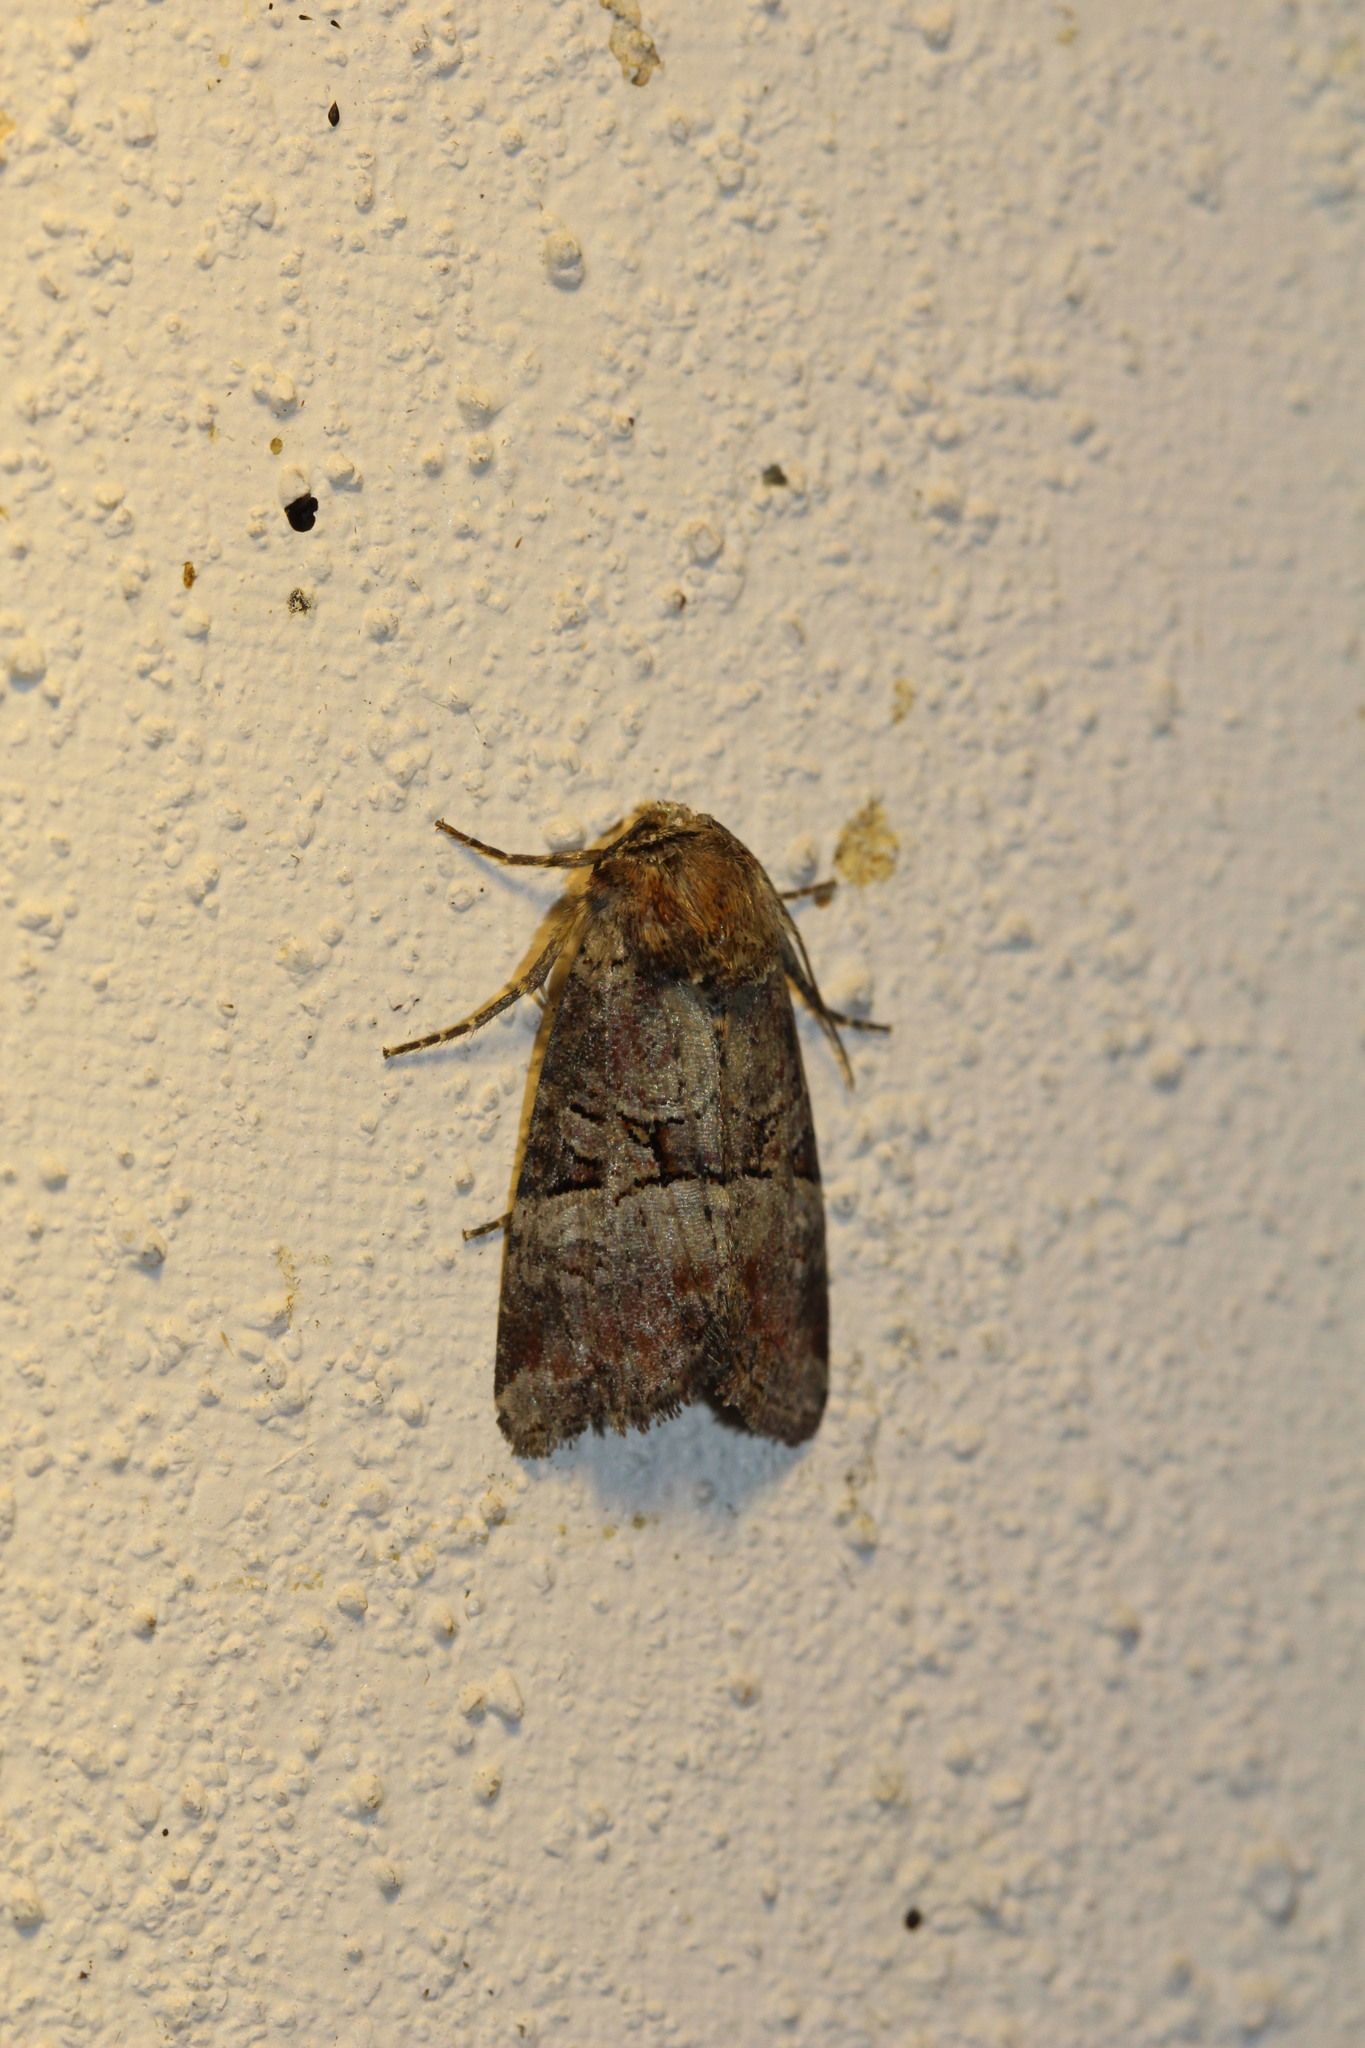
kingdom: Animalia
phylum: Arthropoda
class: Insecta
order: Lepidoptera
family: Noctuidae
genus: Litoligia
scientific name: Litoligia literosa
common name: Rosy minor
